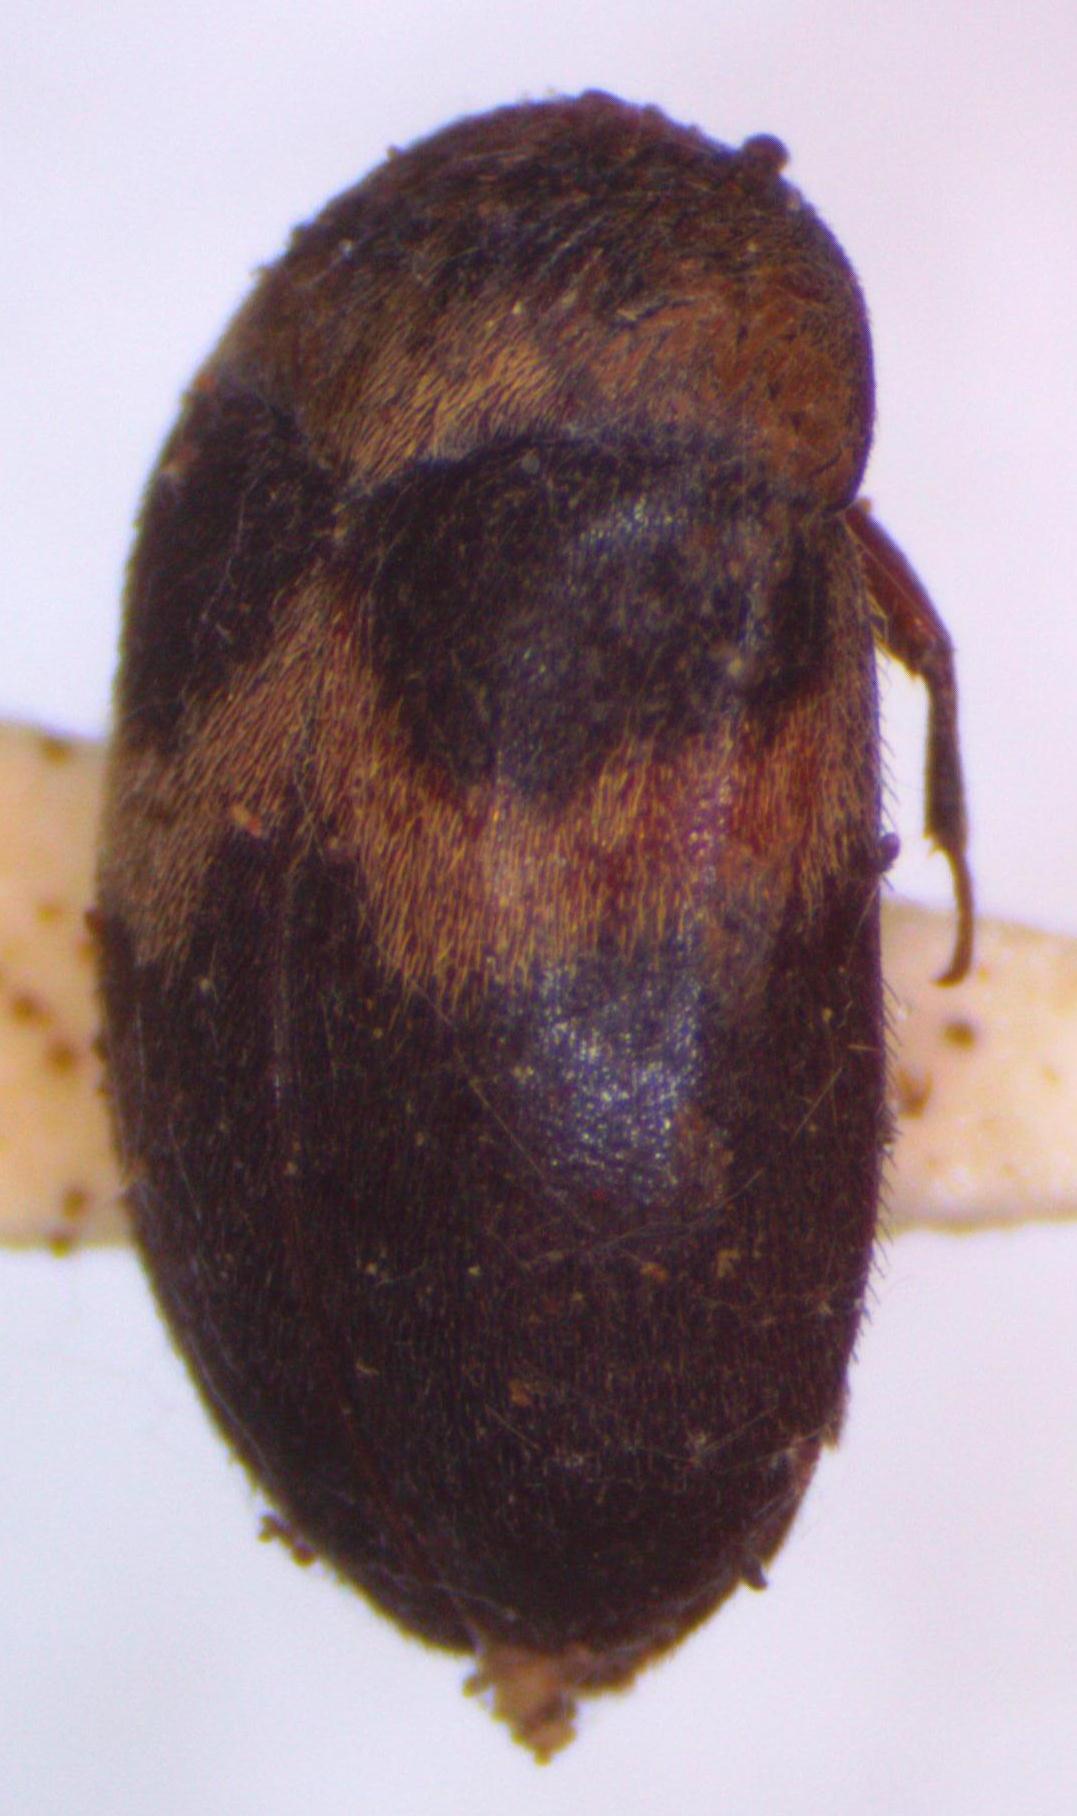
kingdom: Animalia
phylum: Arthropoda
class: Insecta
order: Coleoptera
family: Dermestidae
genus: Attagenus
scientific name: Attagenus fasciatus
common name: Wardrobe beetle
